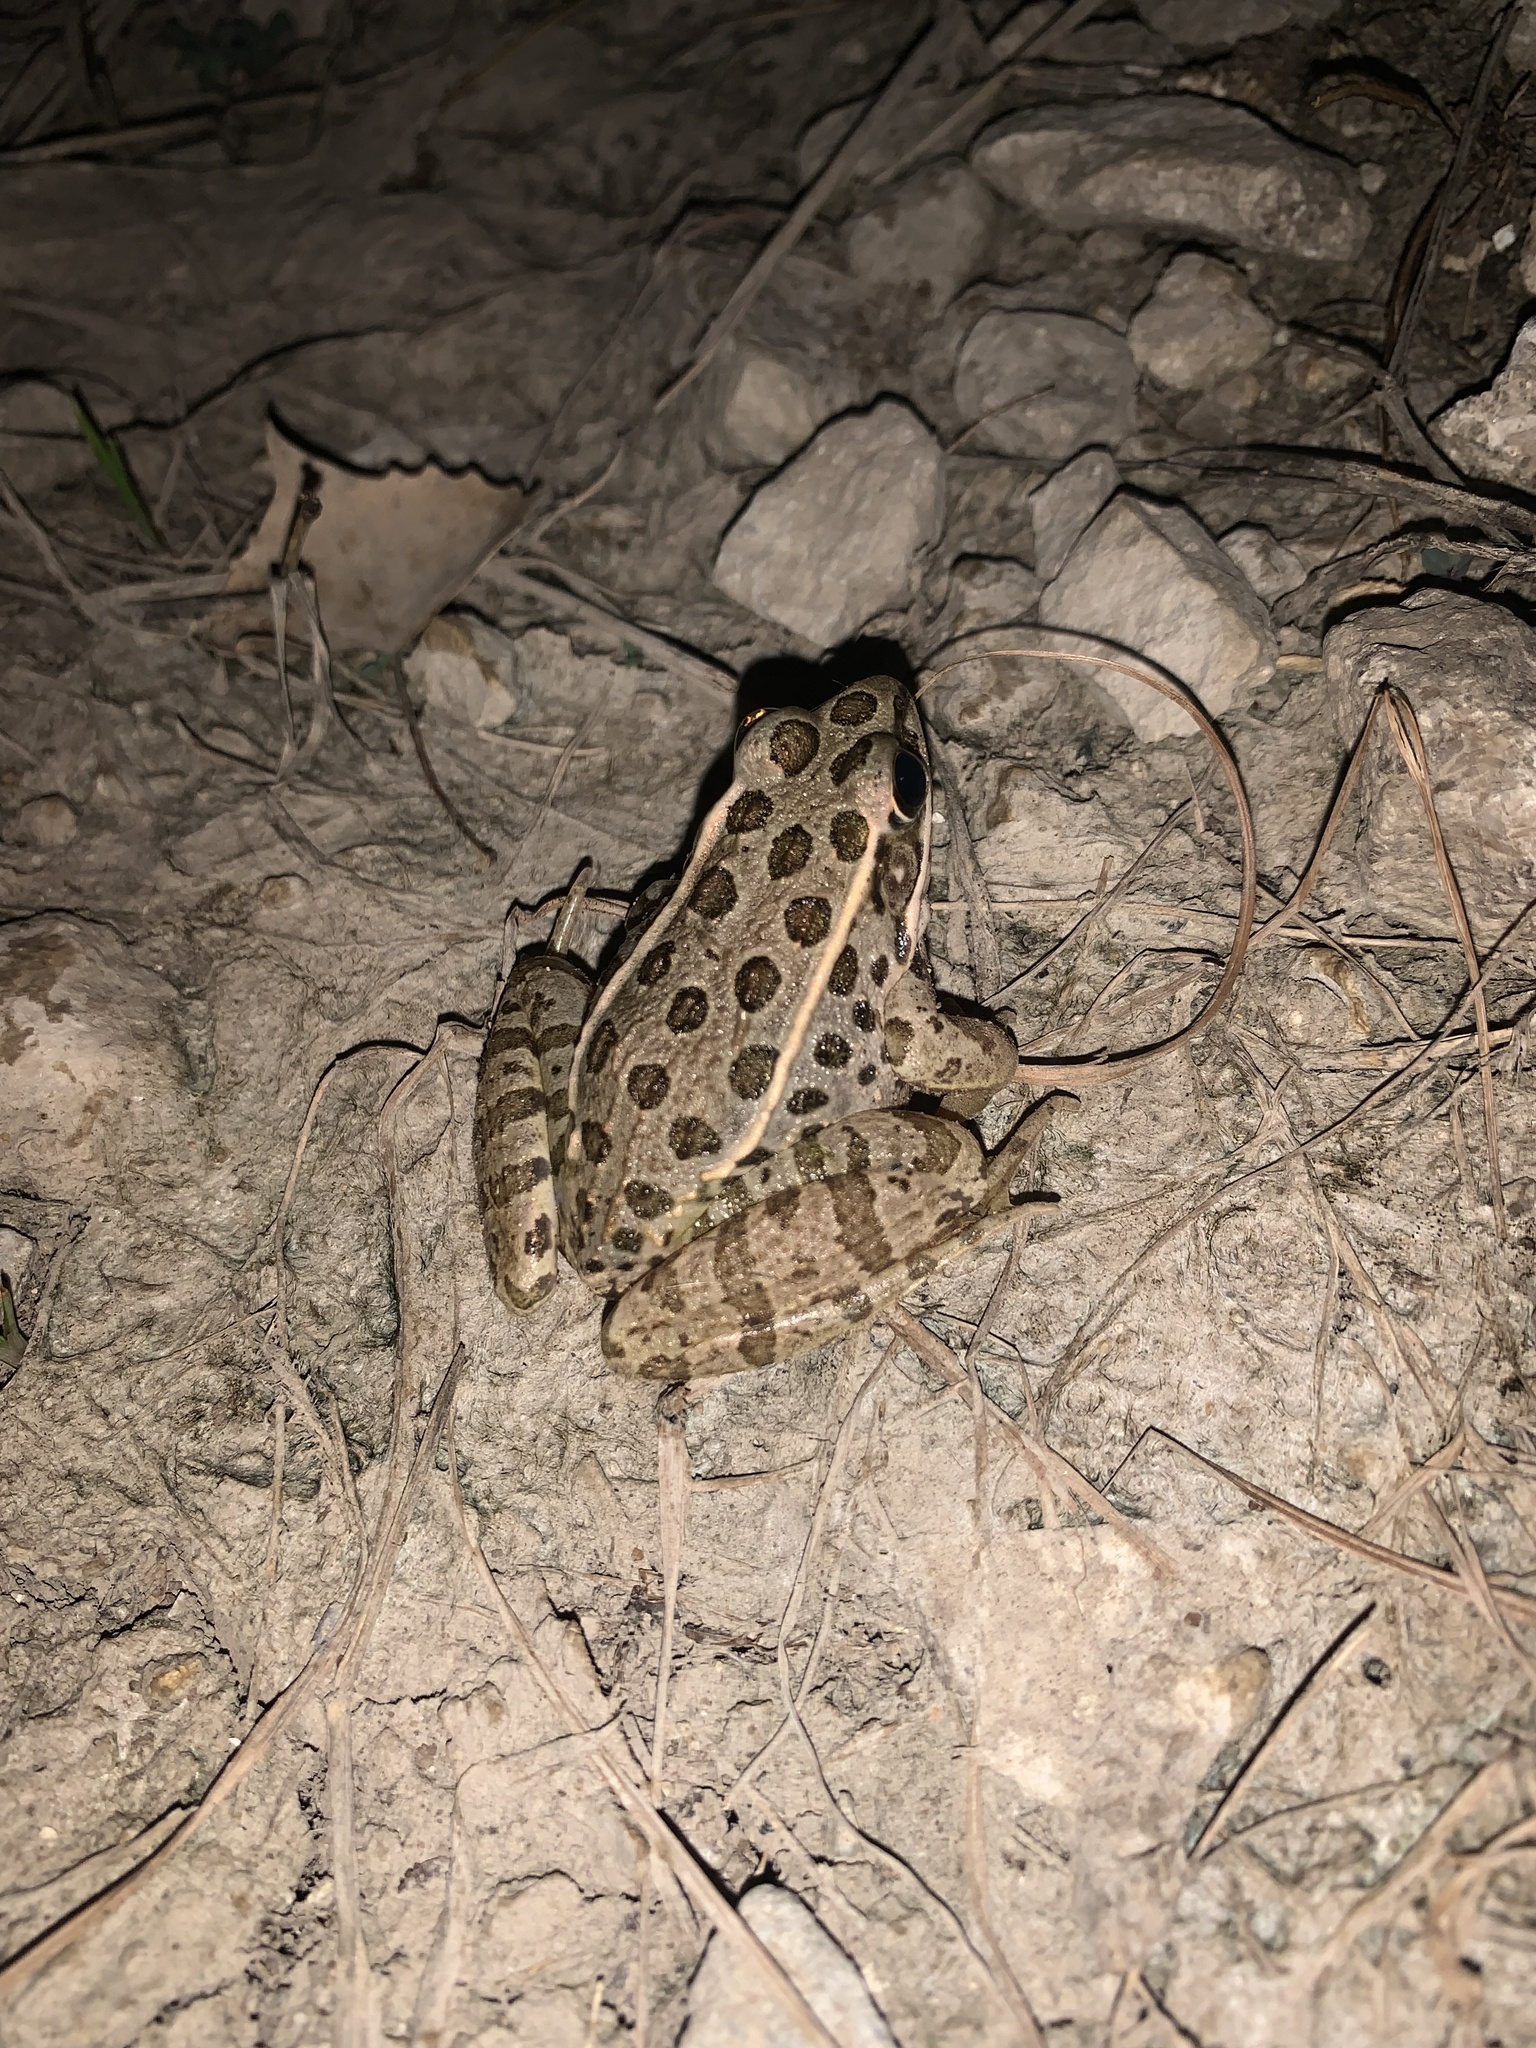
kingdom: Animalia
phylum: Chordata
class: Amphibia
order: Anura
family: Ranidae
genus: Lithobates
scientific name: Lithobates blairi
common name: Plains leopard frog
